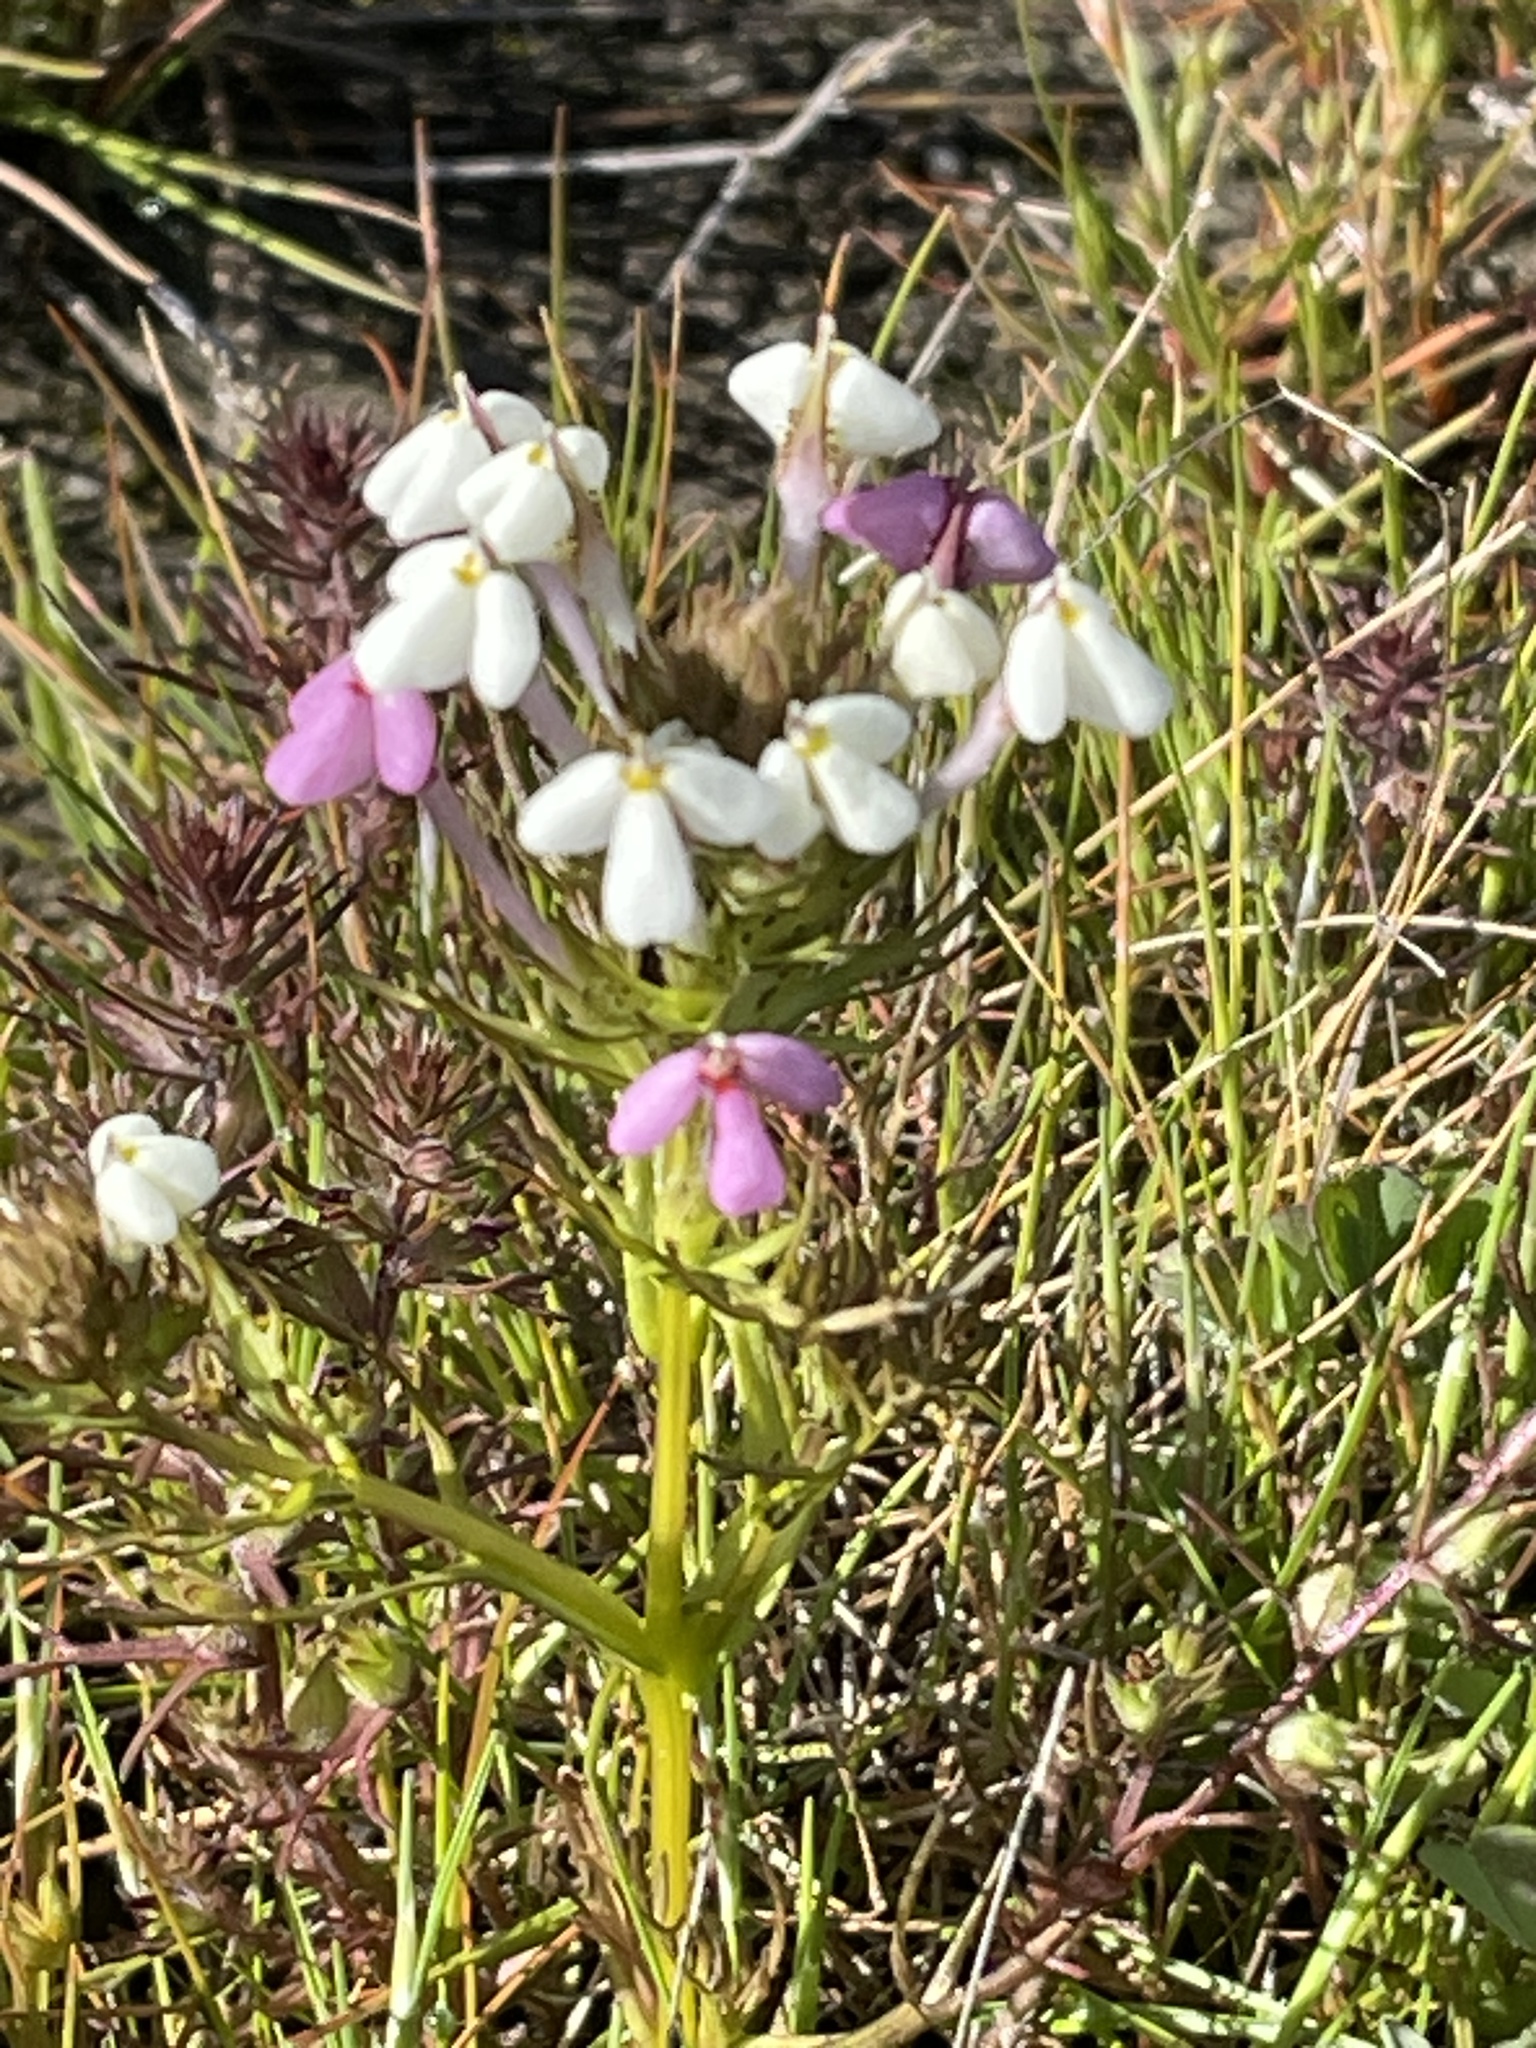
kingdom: Plantae
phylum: Tracheophyta
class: Magnoliopsida
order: Lamiales
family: Orobanchaceae
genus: Triphysaria
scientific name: Triphysaria versicolor
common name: Bearded false owl-clover
